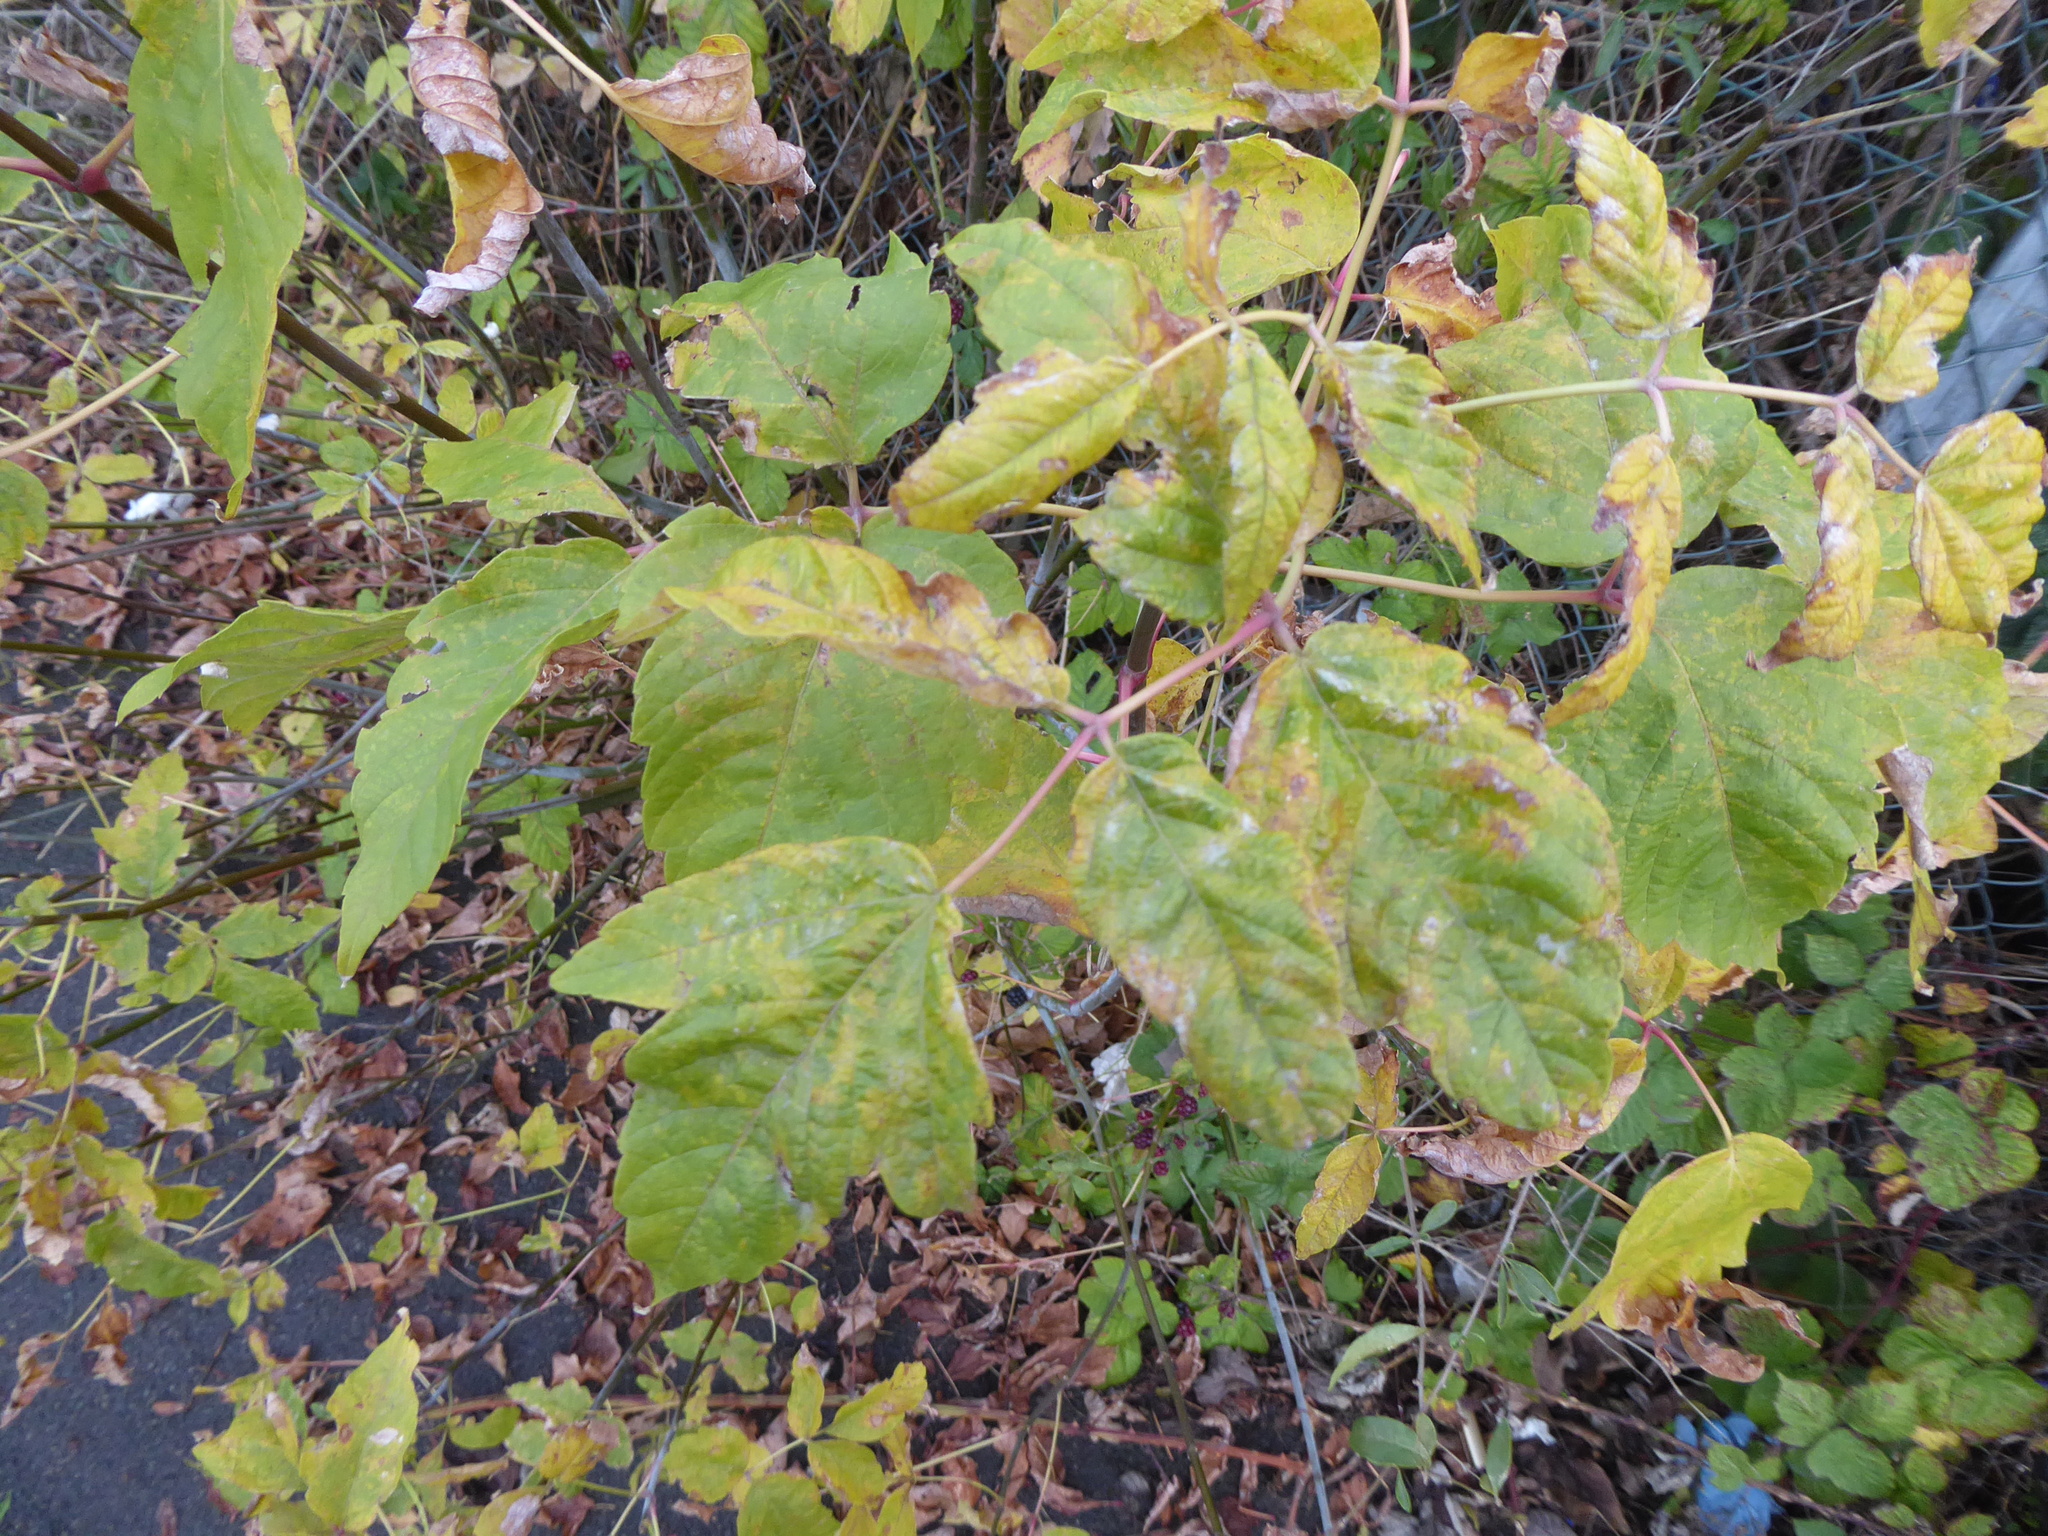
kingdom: Plantae
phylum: Tracheophyta
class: Magnoliopsida
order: Sapindales
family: Sapindaceae
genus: Acer
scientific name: Acer negundo
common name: Ashleaf maple
